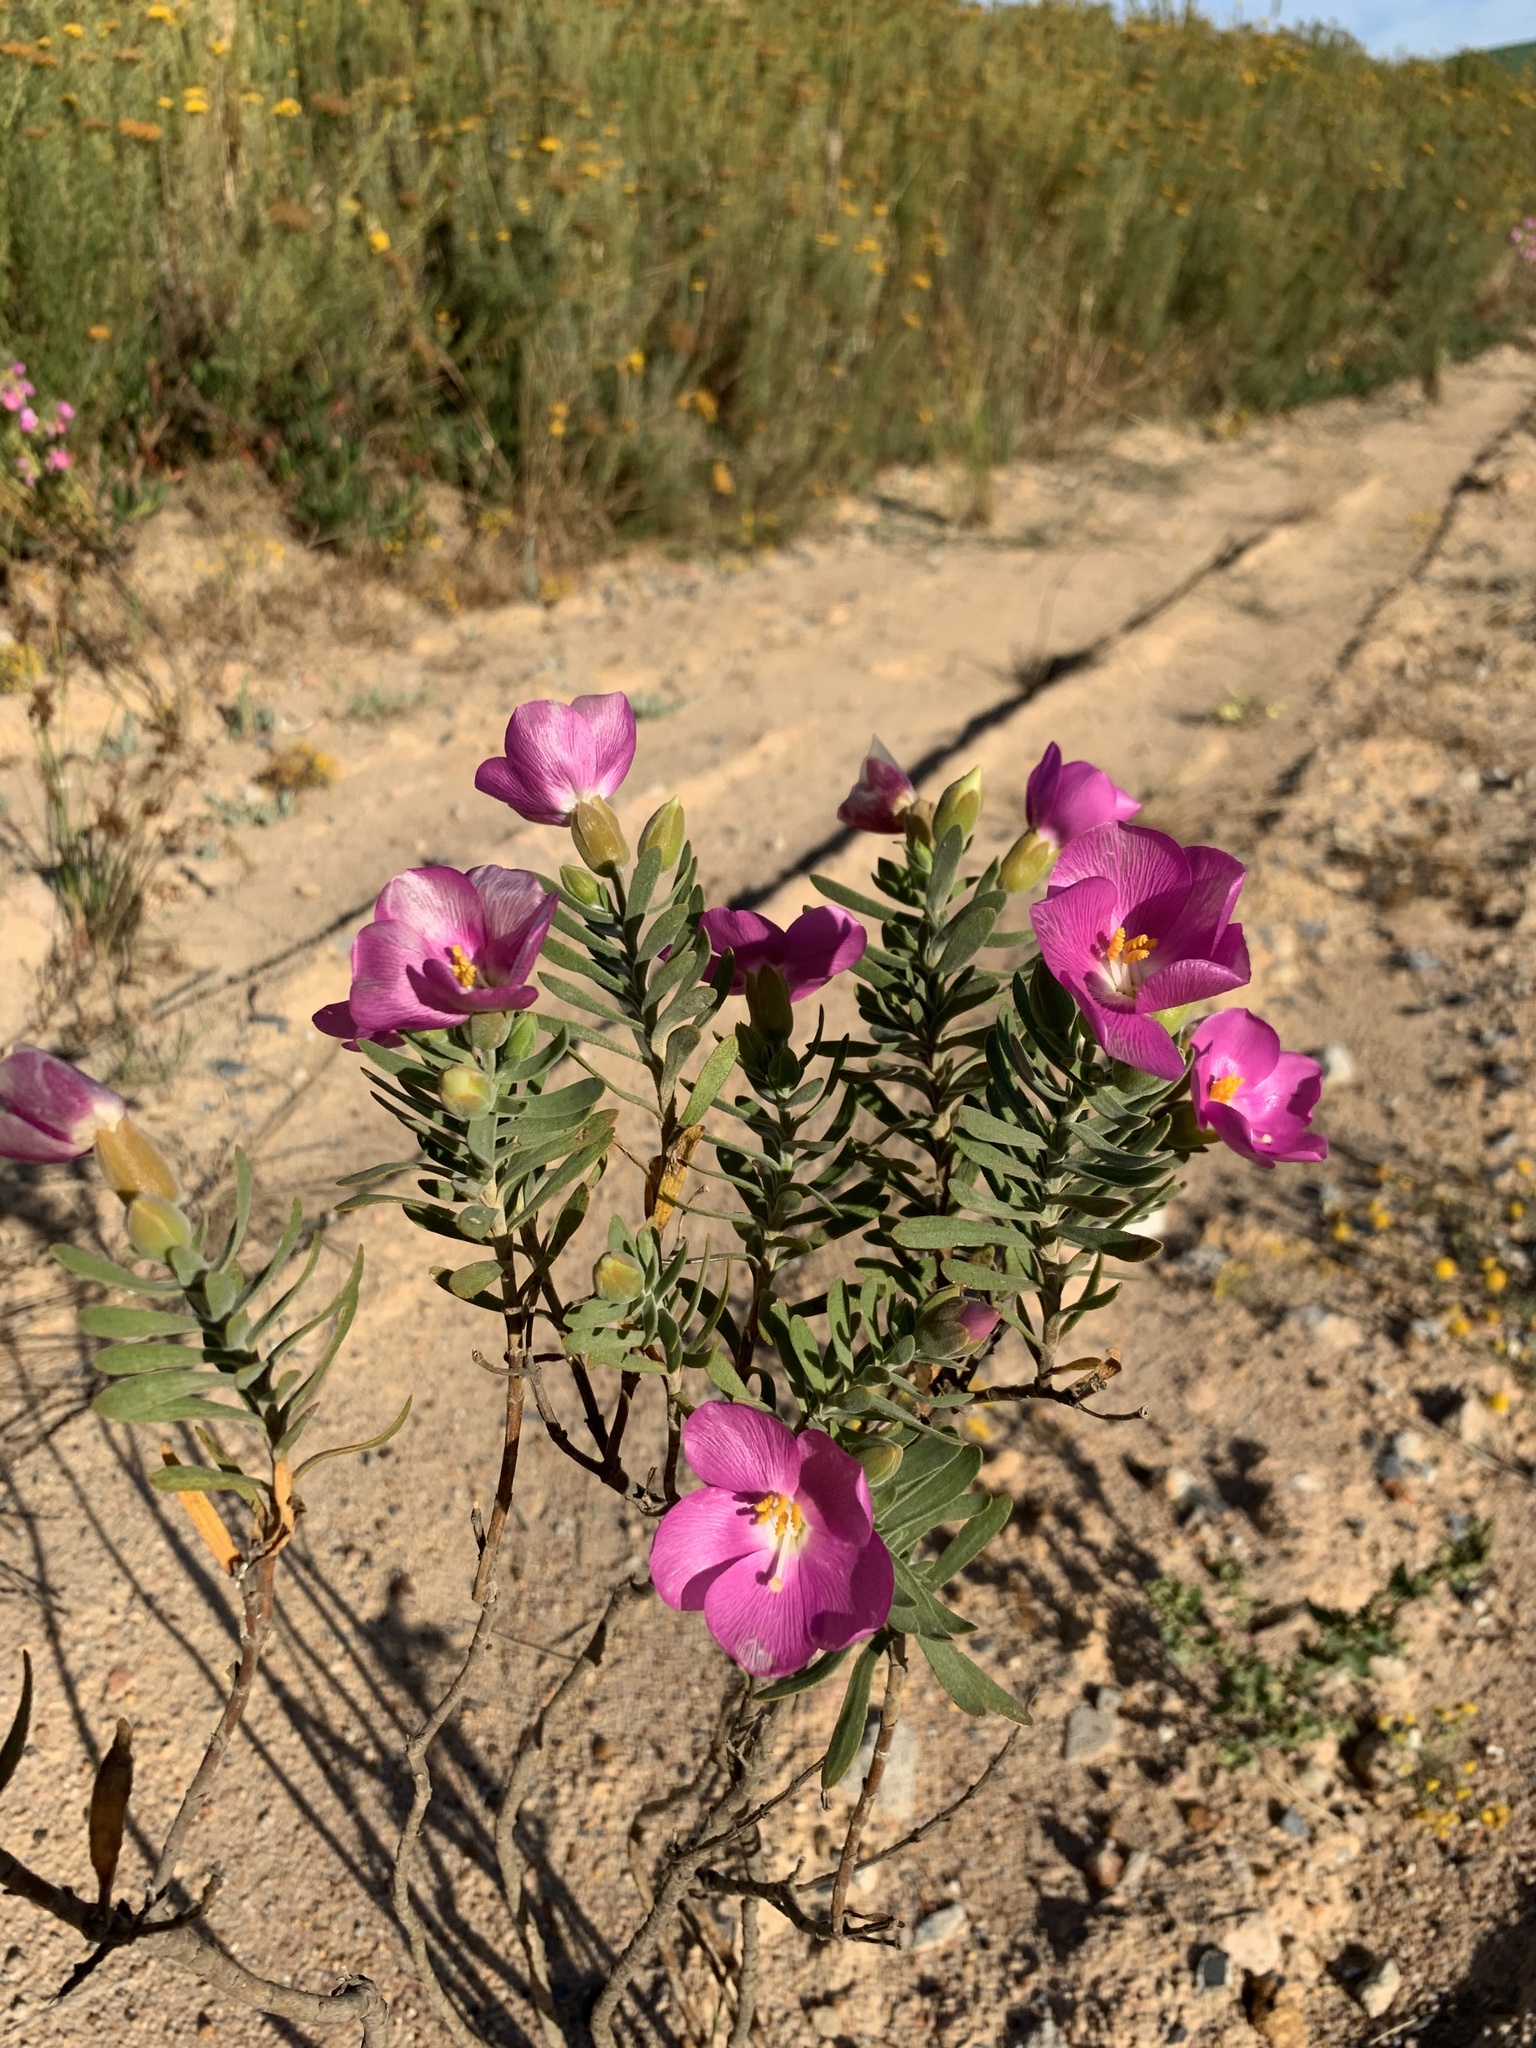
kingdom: Plantae
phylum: Tracheophyta
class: Magnoliopsida
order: Gentianales
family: Gentianaceae
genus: Orphium
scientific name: Orphium frutescens
